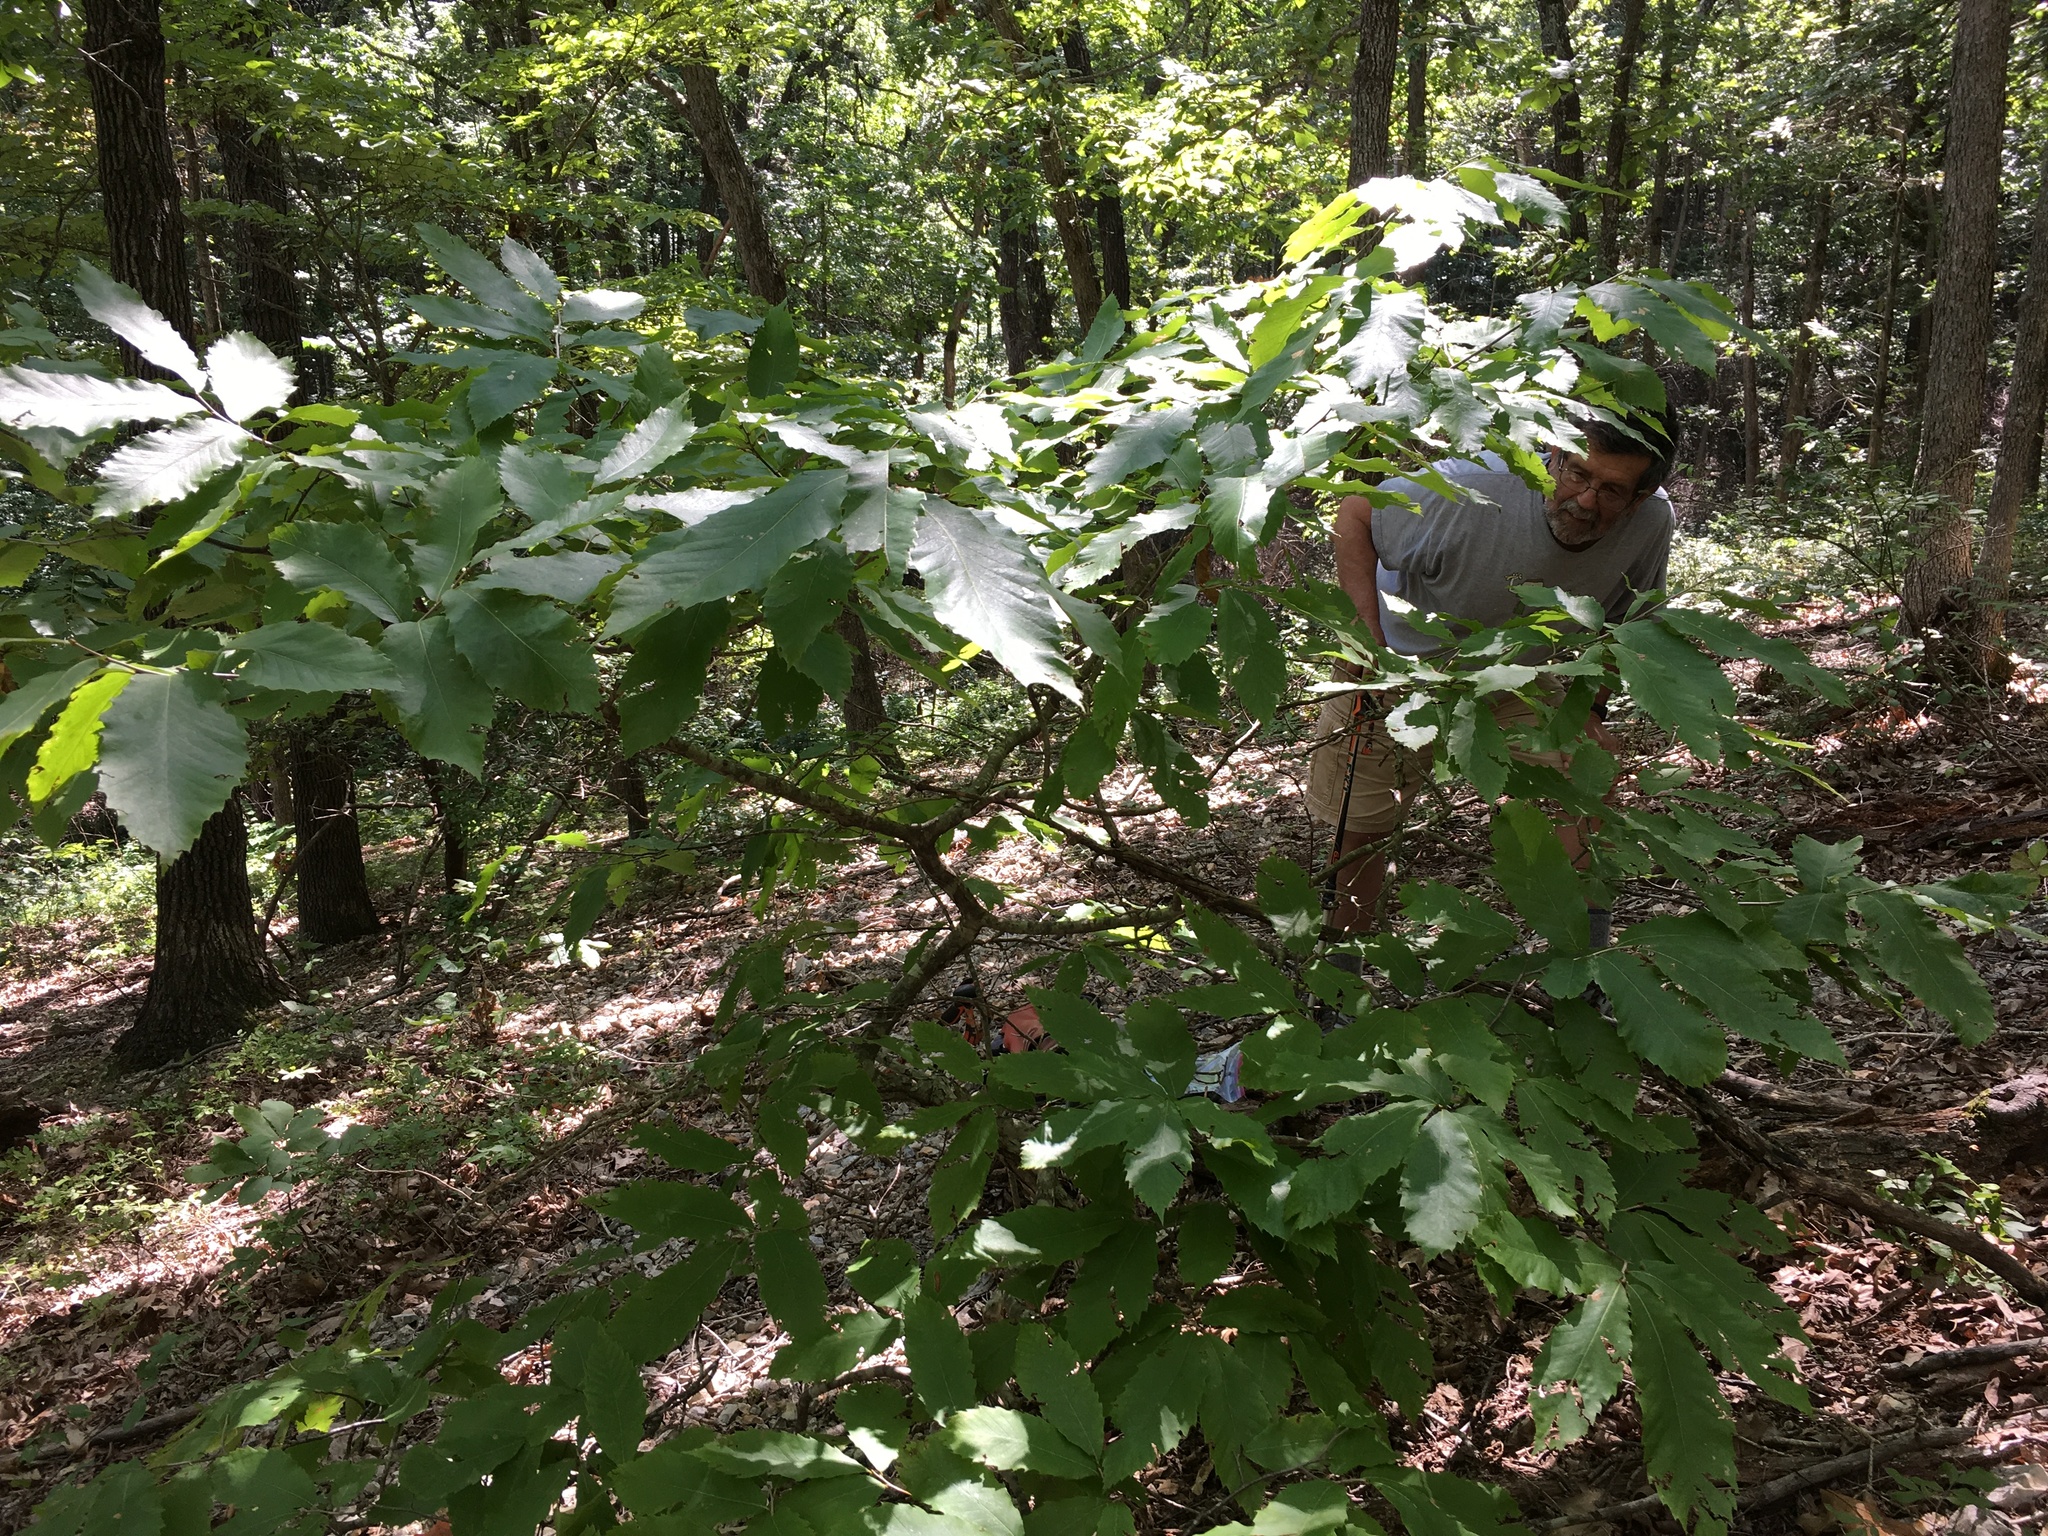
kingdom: Plantae
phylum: Tracheophyta
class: Magnoliopsida
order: Fagales
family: Fagaceae
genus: Castanea
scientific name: Castanea ozarkensis
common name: Ozark chinkapin
